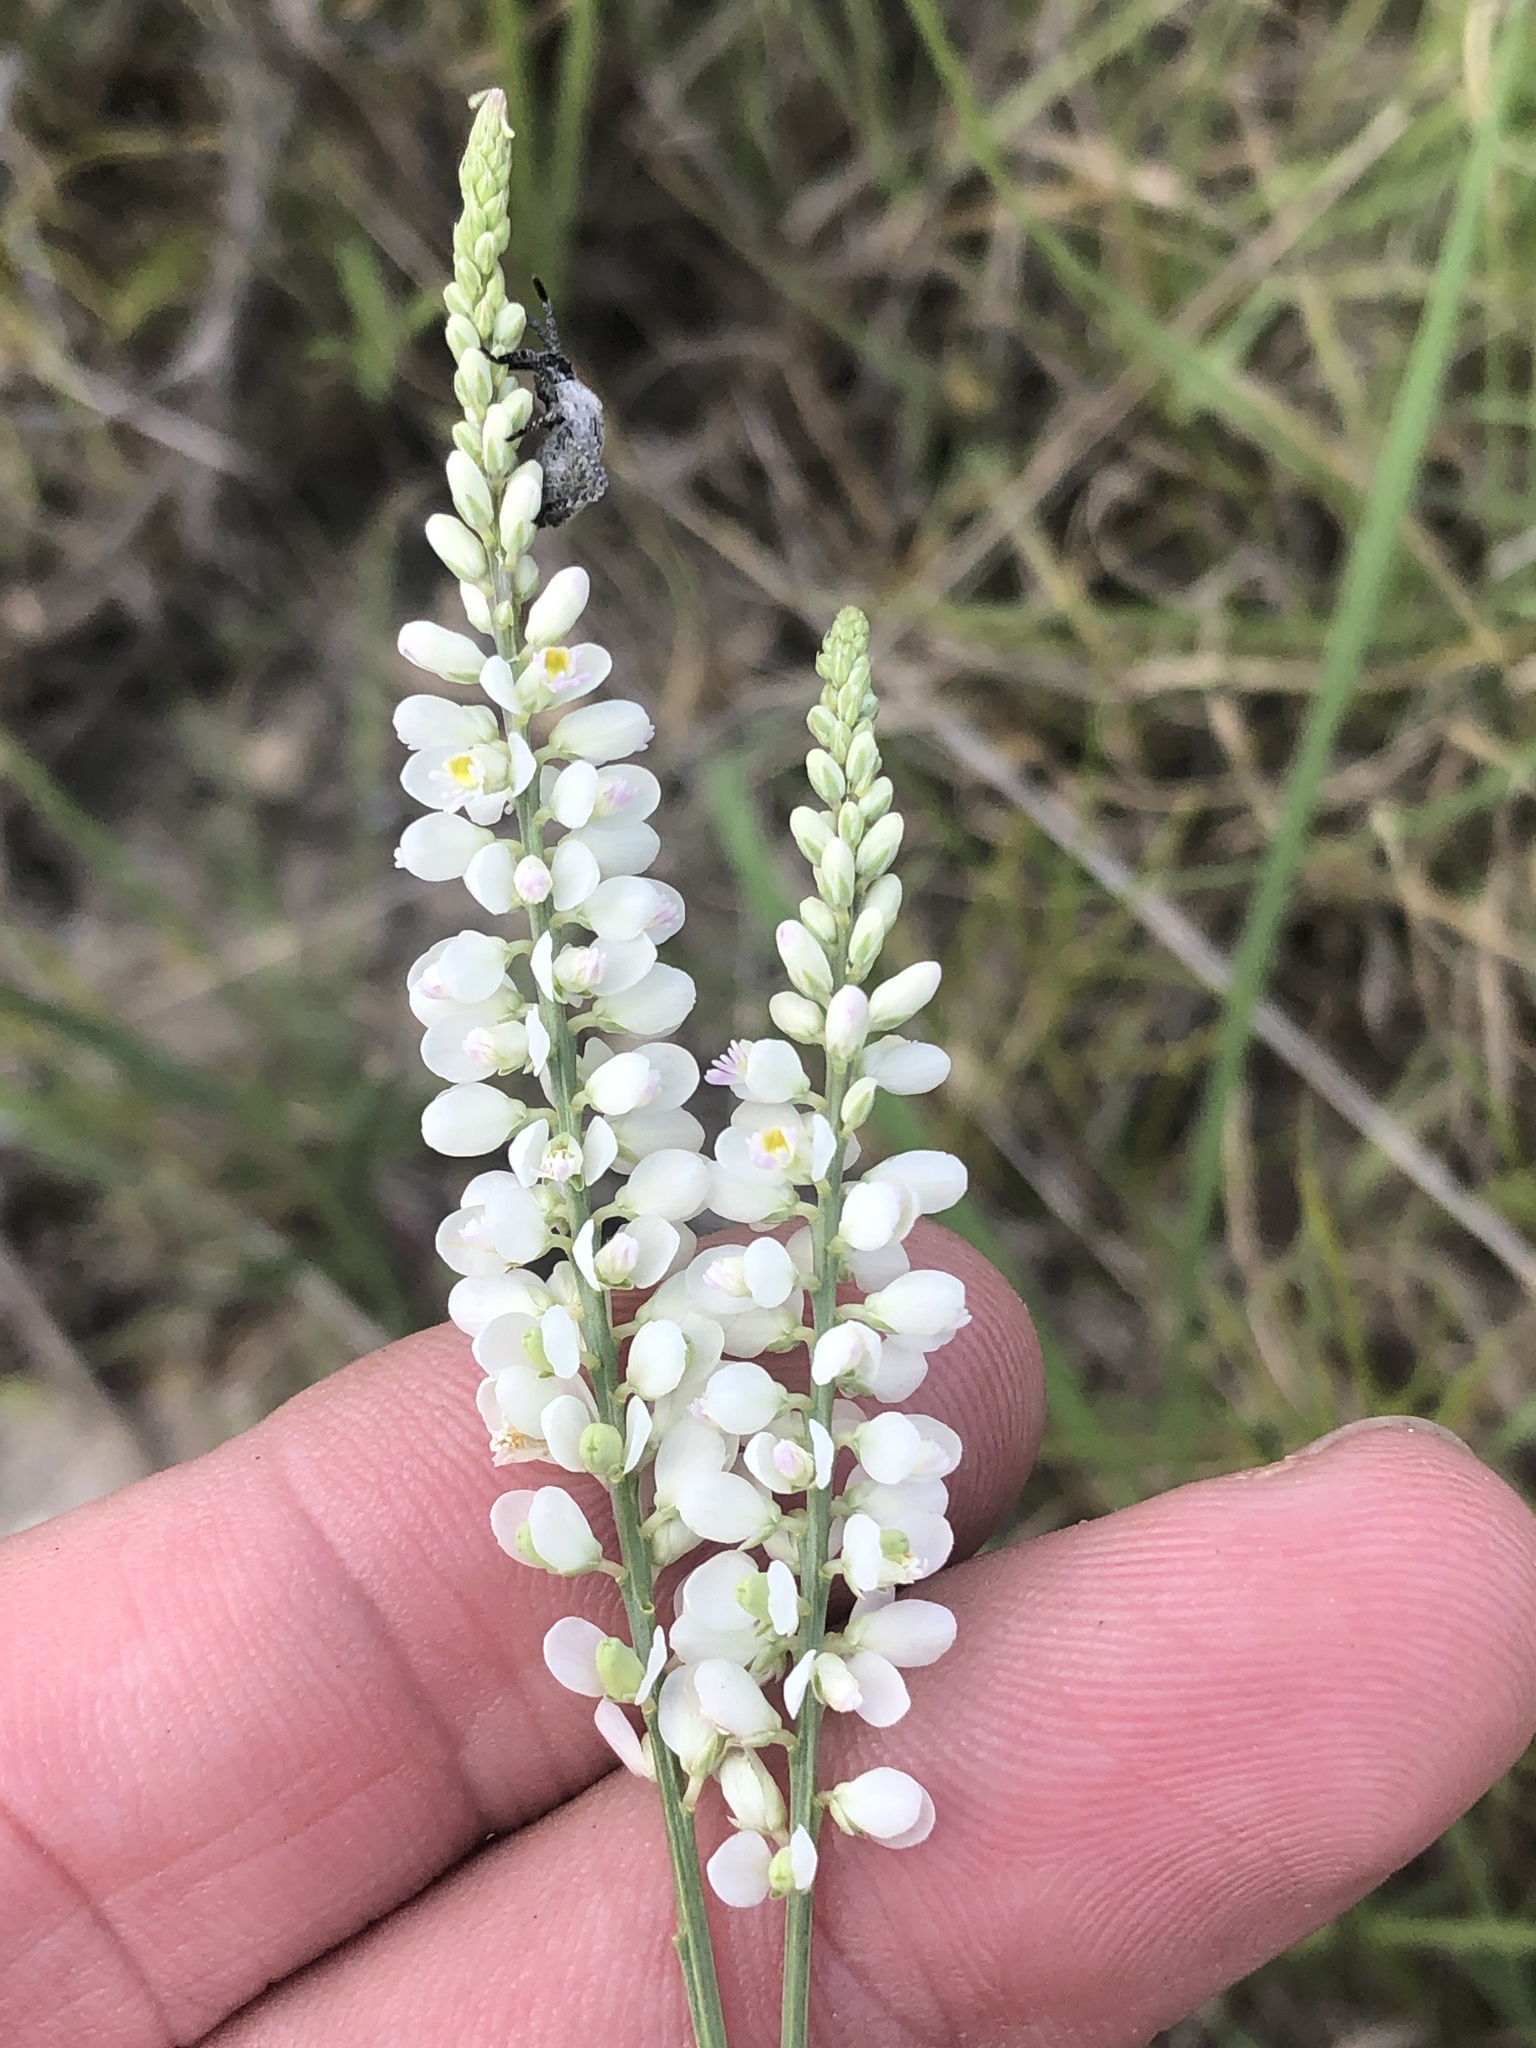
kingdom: Plantae
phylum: Tracheophyta
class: Magnoliopsida
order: Fabales
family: Polygalaceae
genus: Polygala
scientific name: Polygala alba
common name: White milkwort
